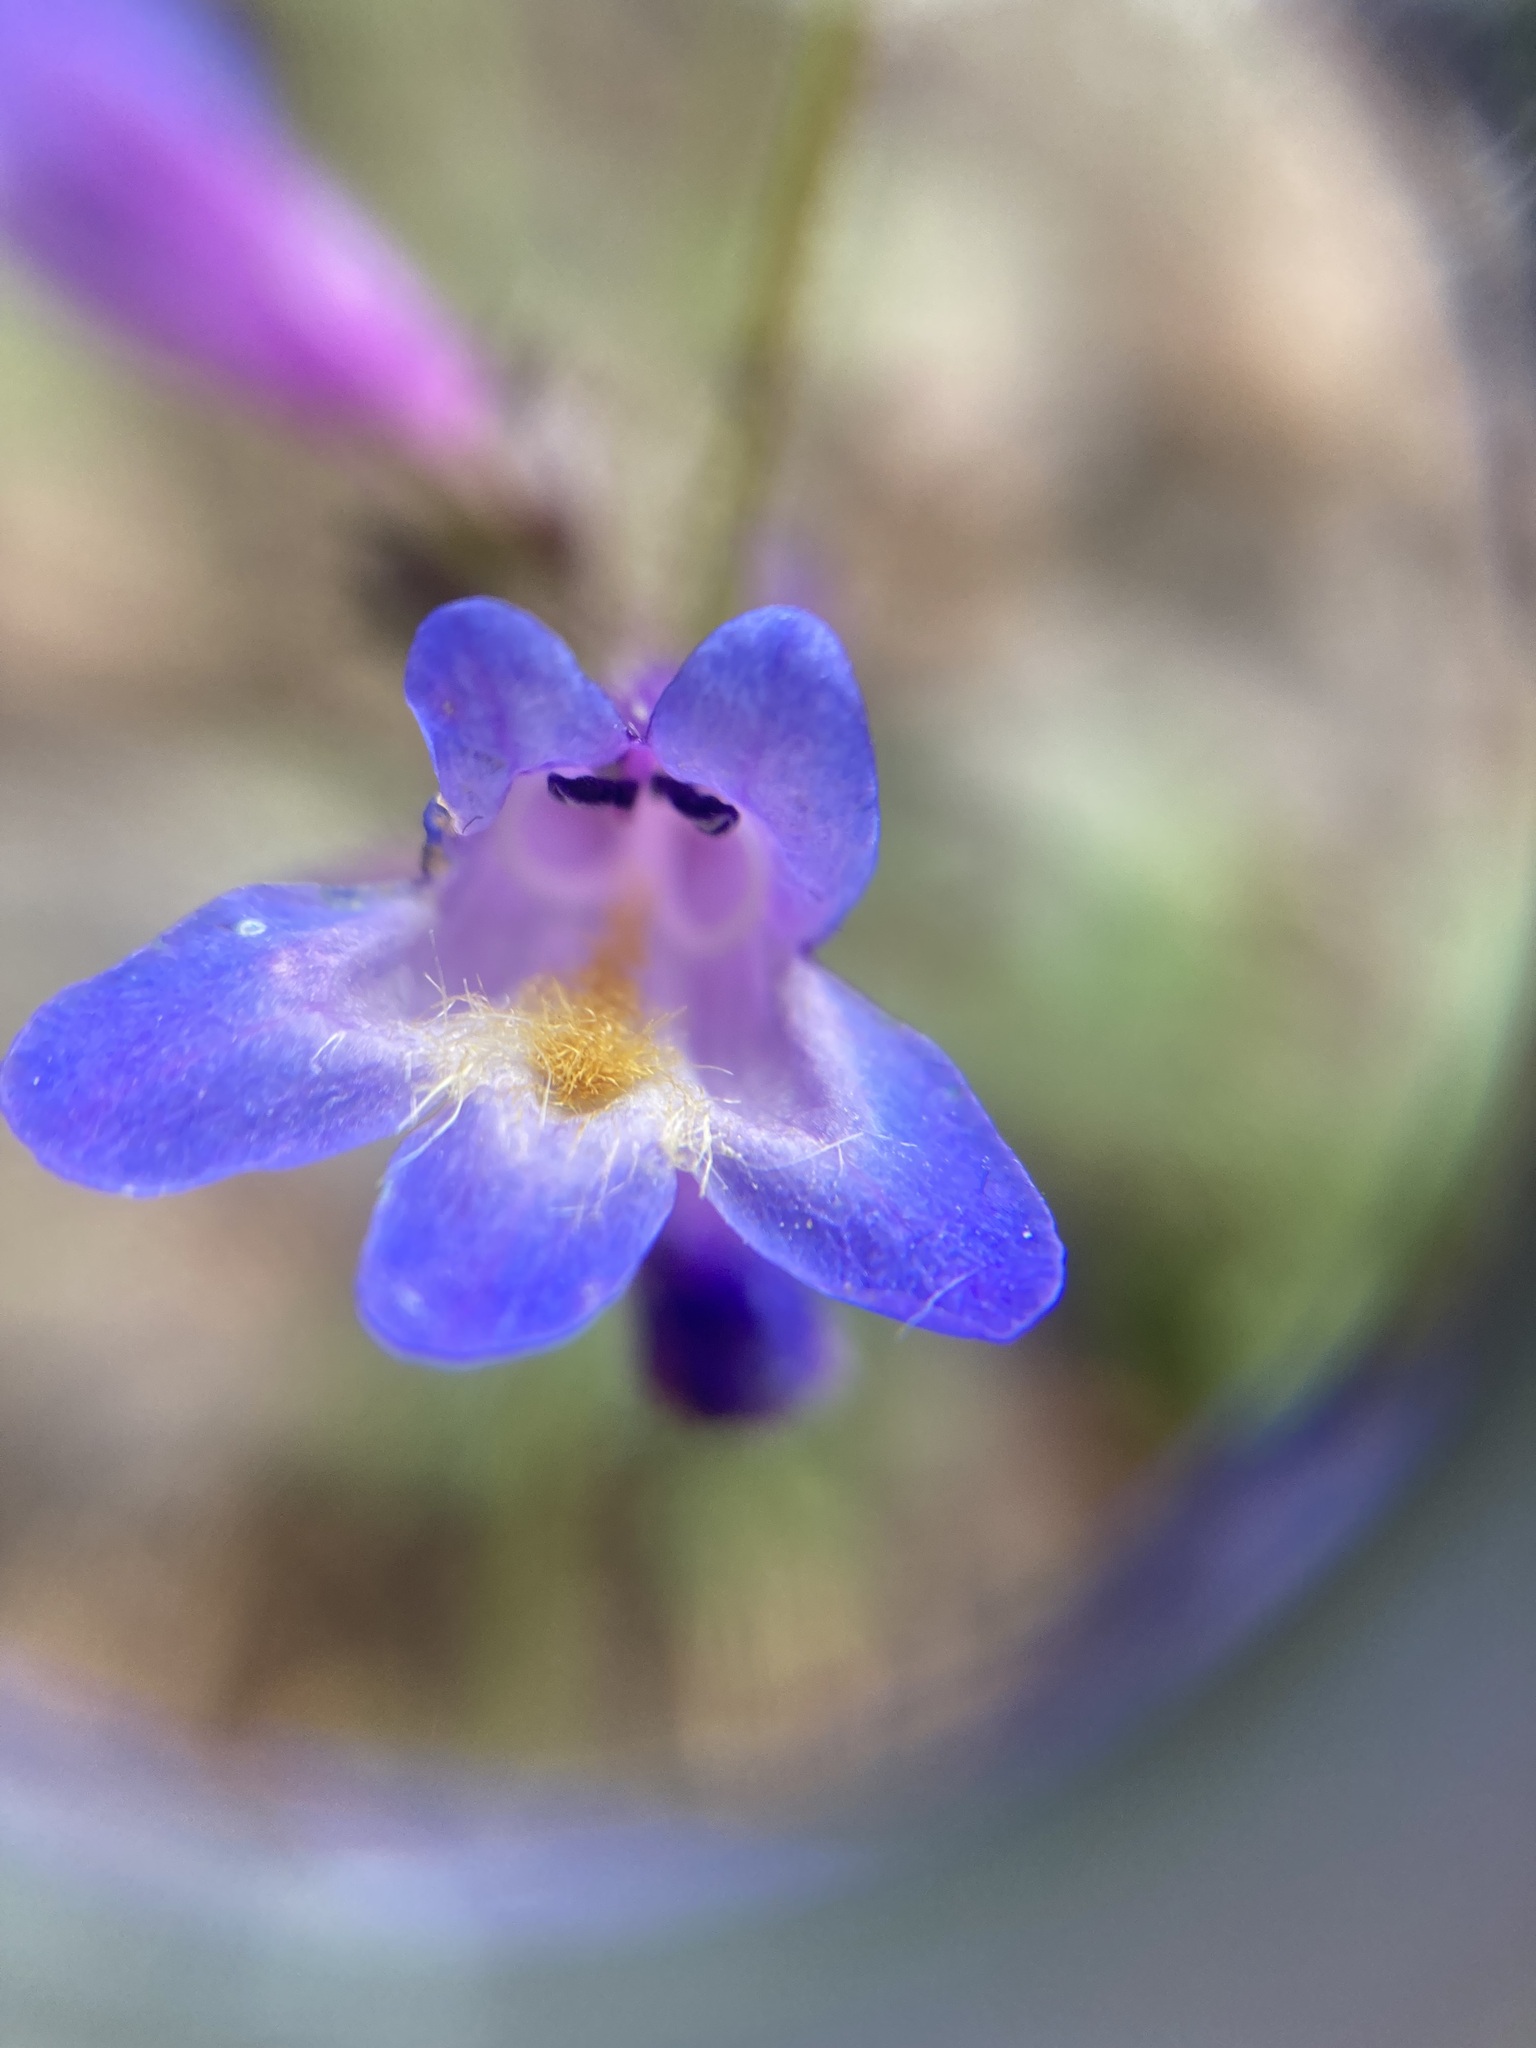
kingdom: Plantae
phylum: Tracheophyta
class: Magnoliopsida
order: Lamiales
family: Plantaginaceae
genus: Penstemon
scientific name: Penstemon pseudoparvus
